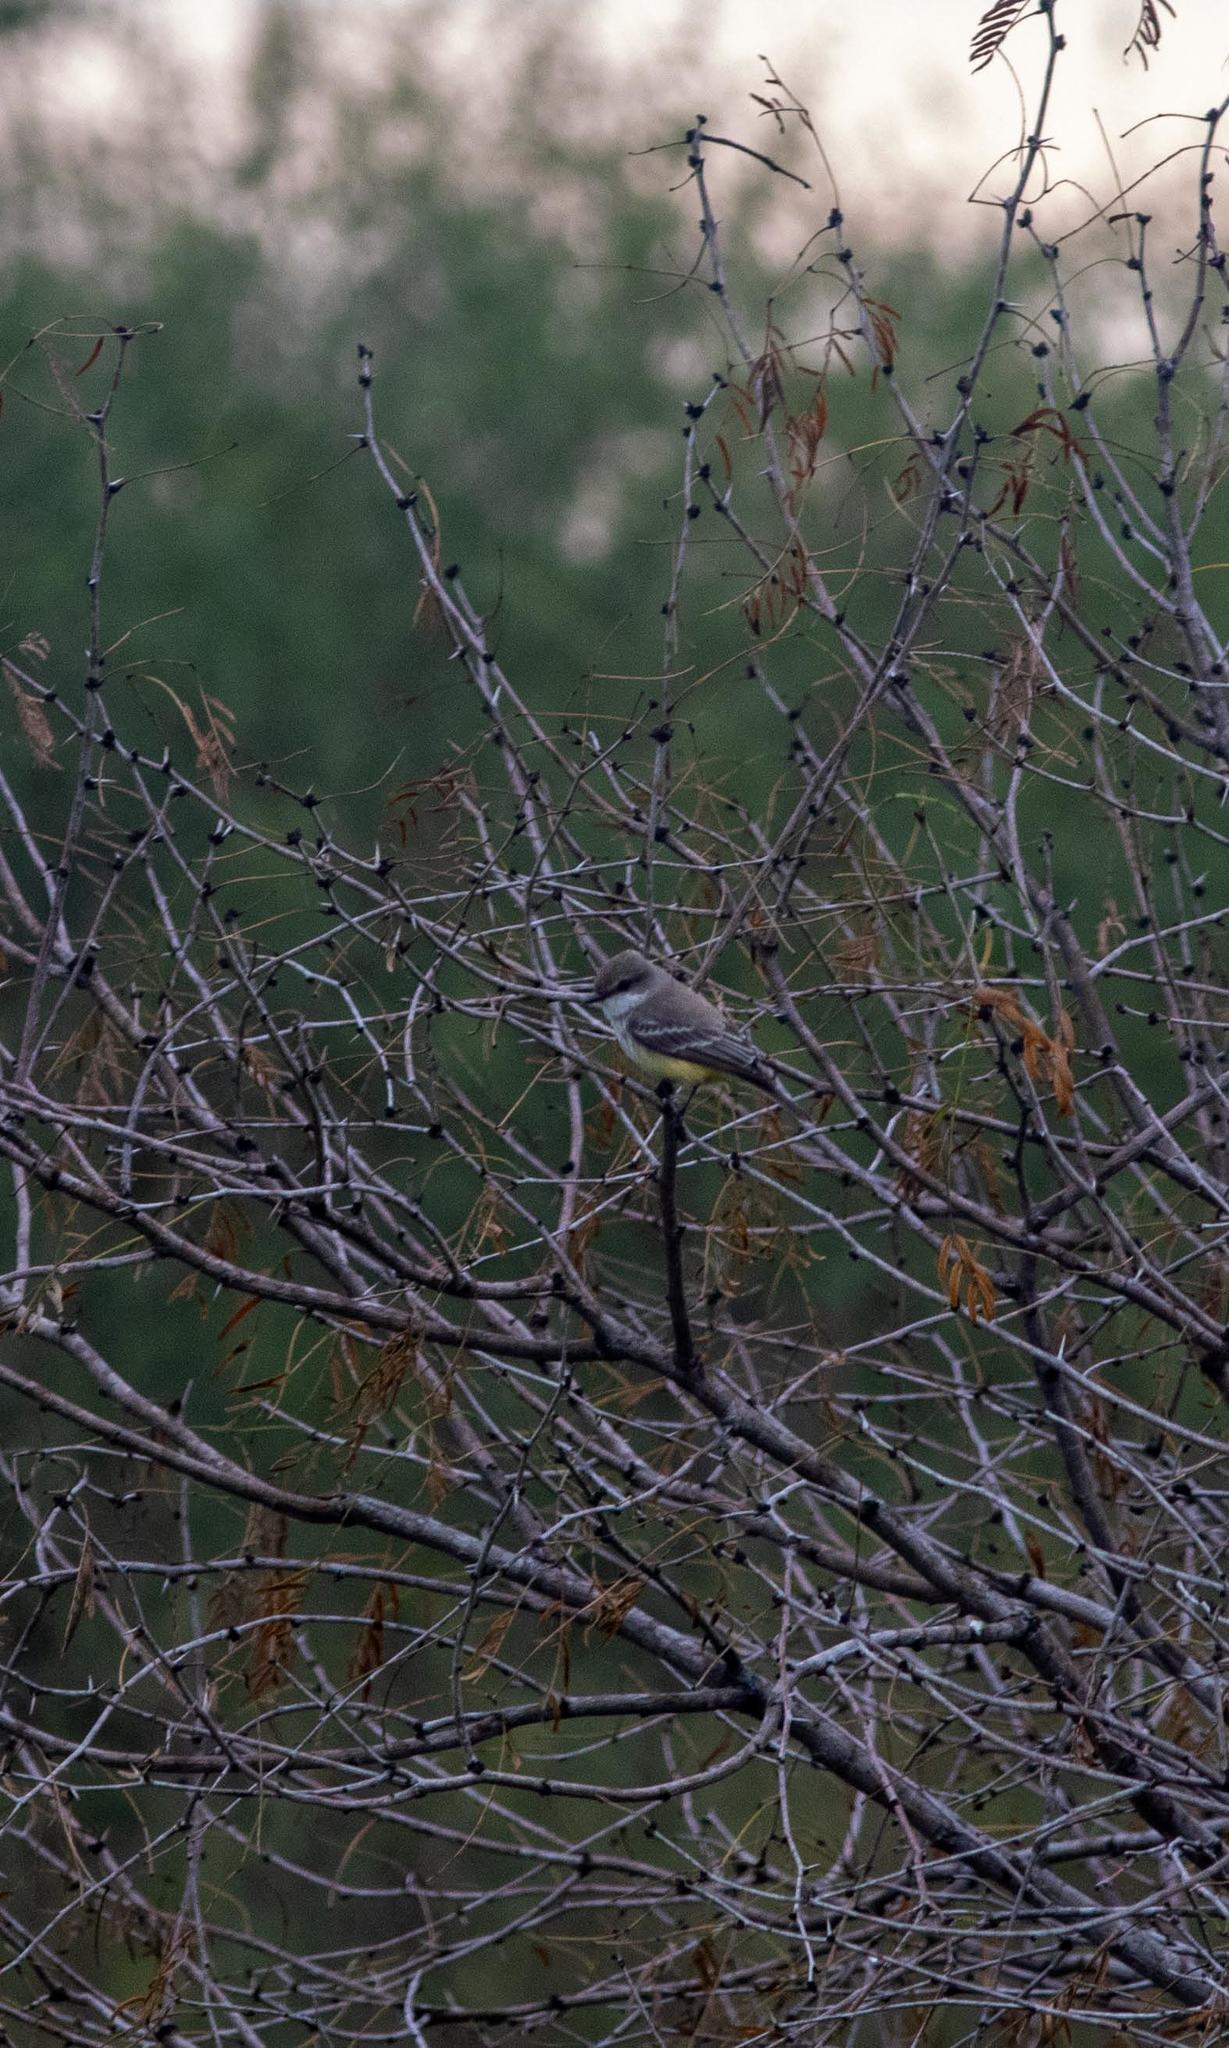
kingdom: Animalia
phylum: Chordata
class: Aves
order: Passeriformes
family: Tyrannidae
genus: Pyrocephalus
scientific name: Pyrocephalus rubinus
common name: Vermilion flycatcher
